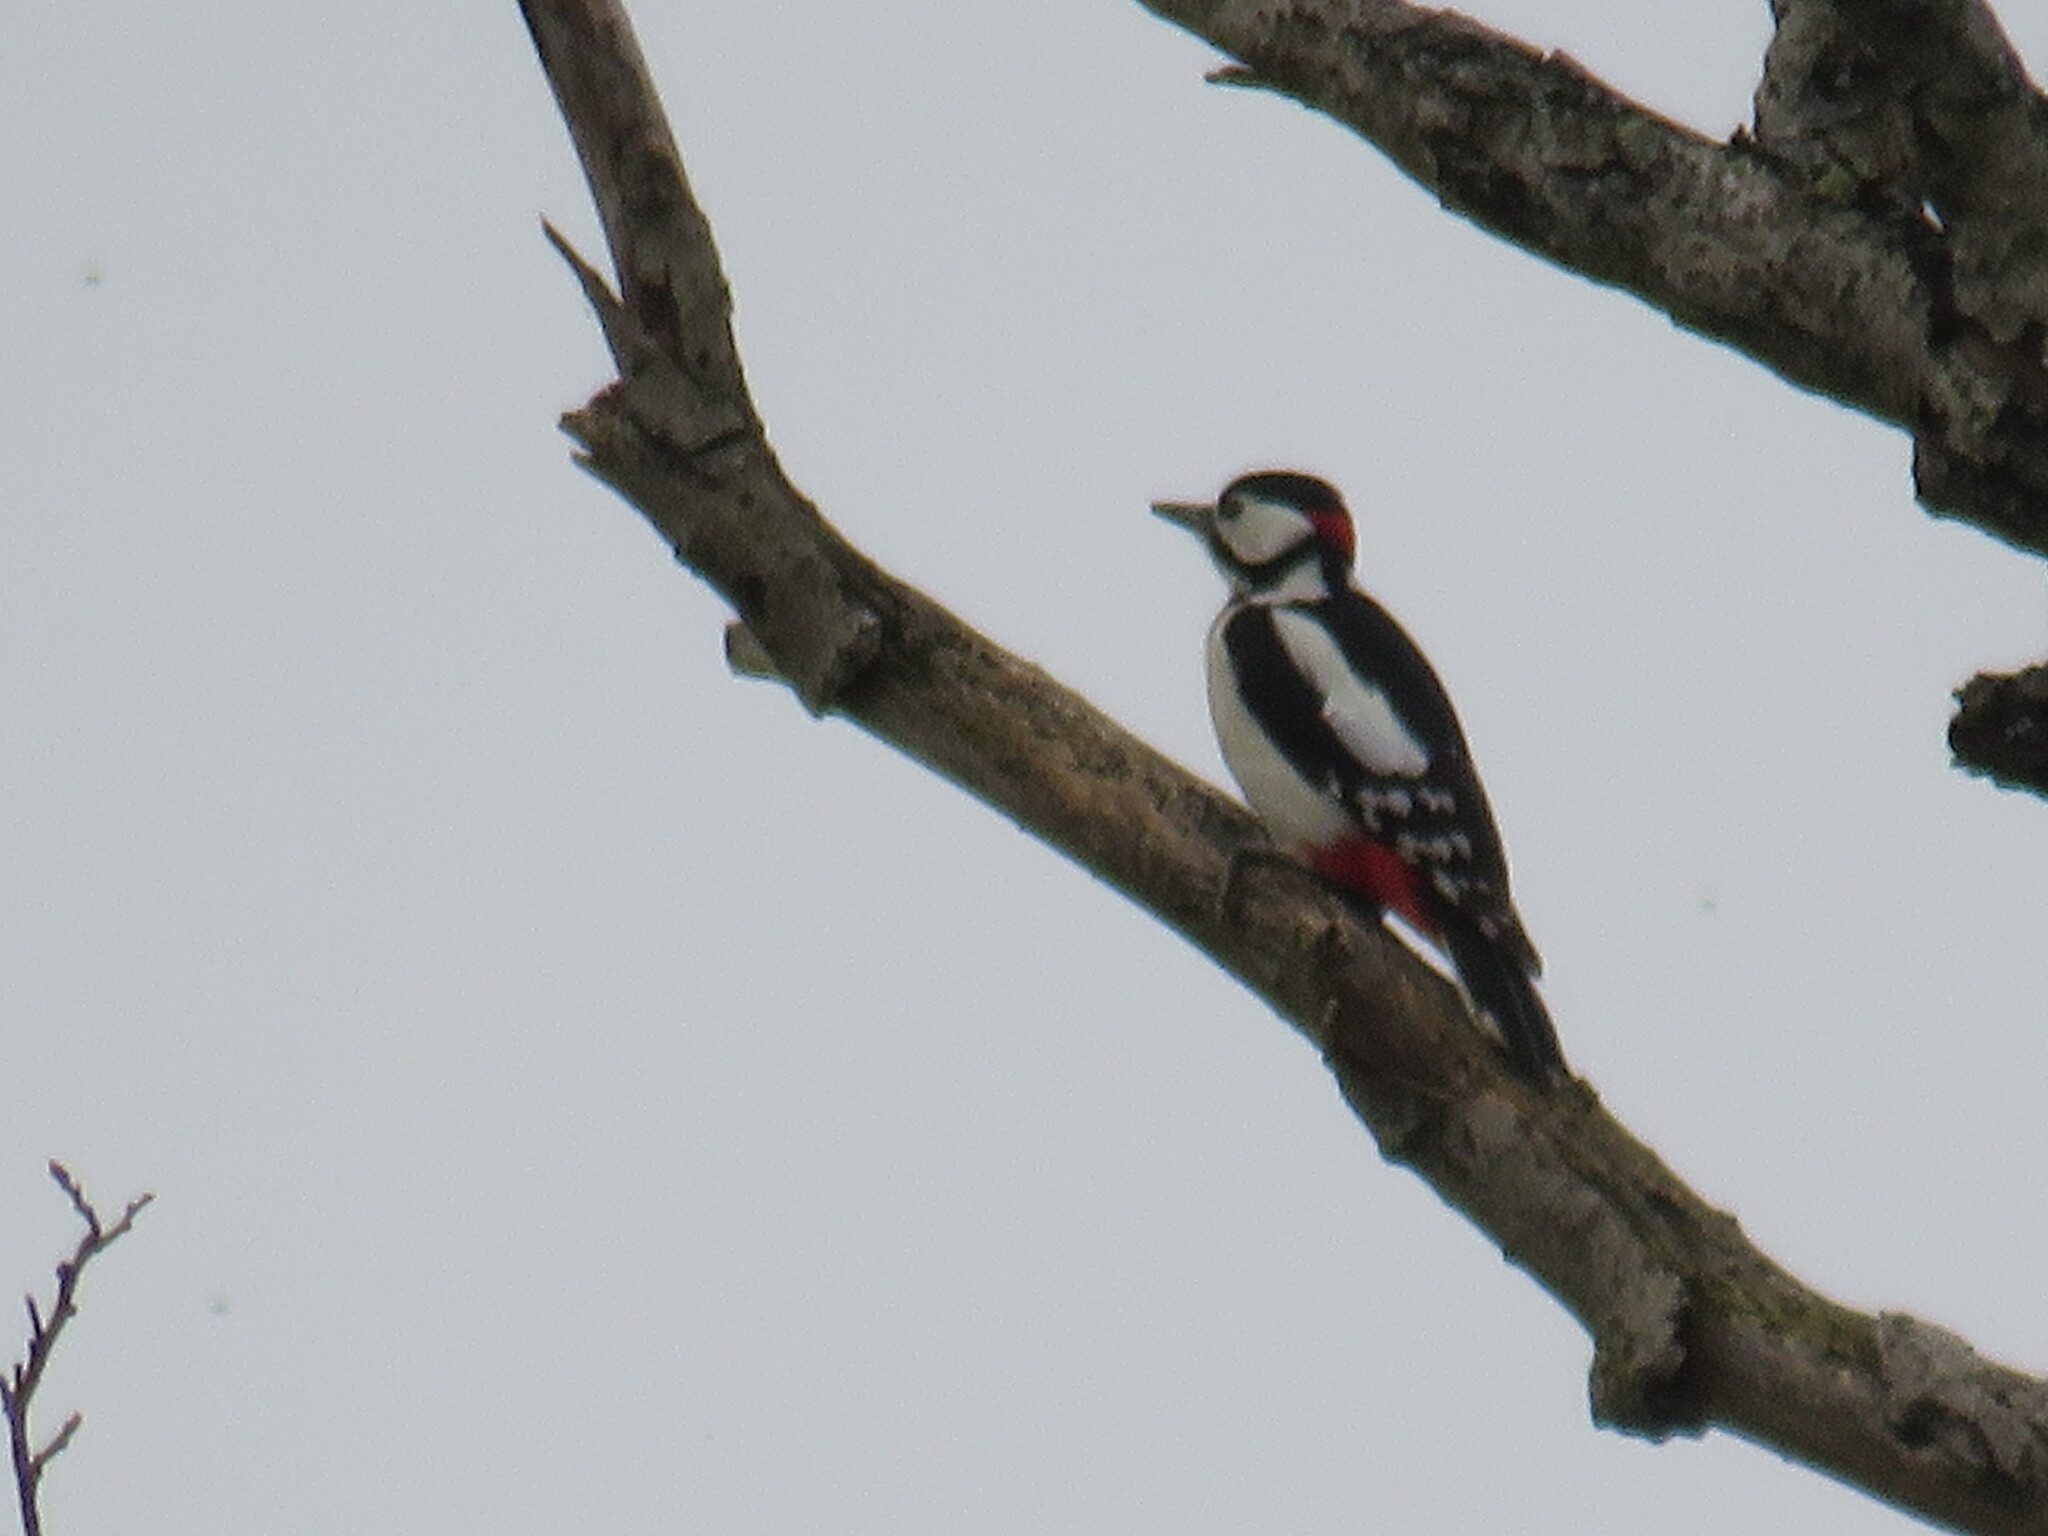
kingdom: Animalia
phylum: Chordata
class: Aves
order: Piciformes
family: Picidae
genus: Dendrocopos
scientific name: Dendrocopos major
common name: Great spotted woodpecker
